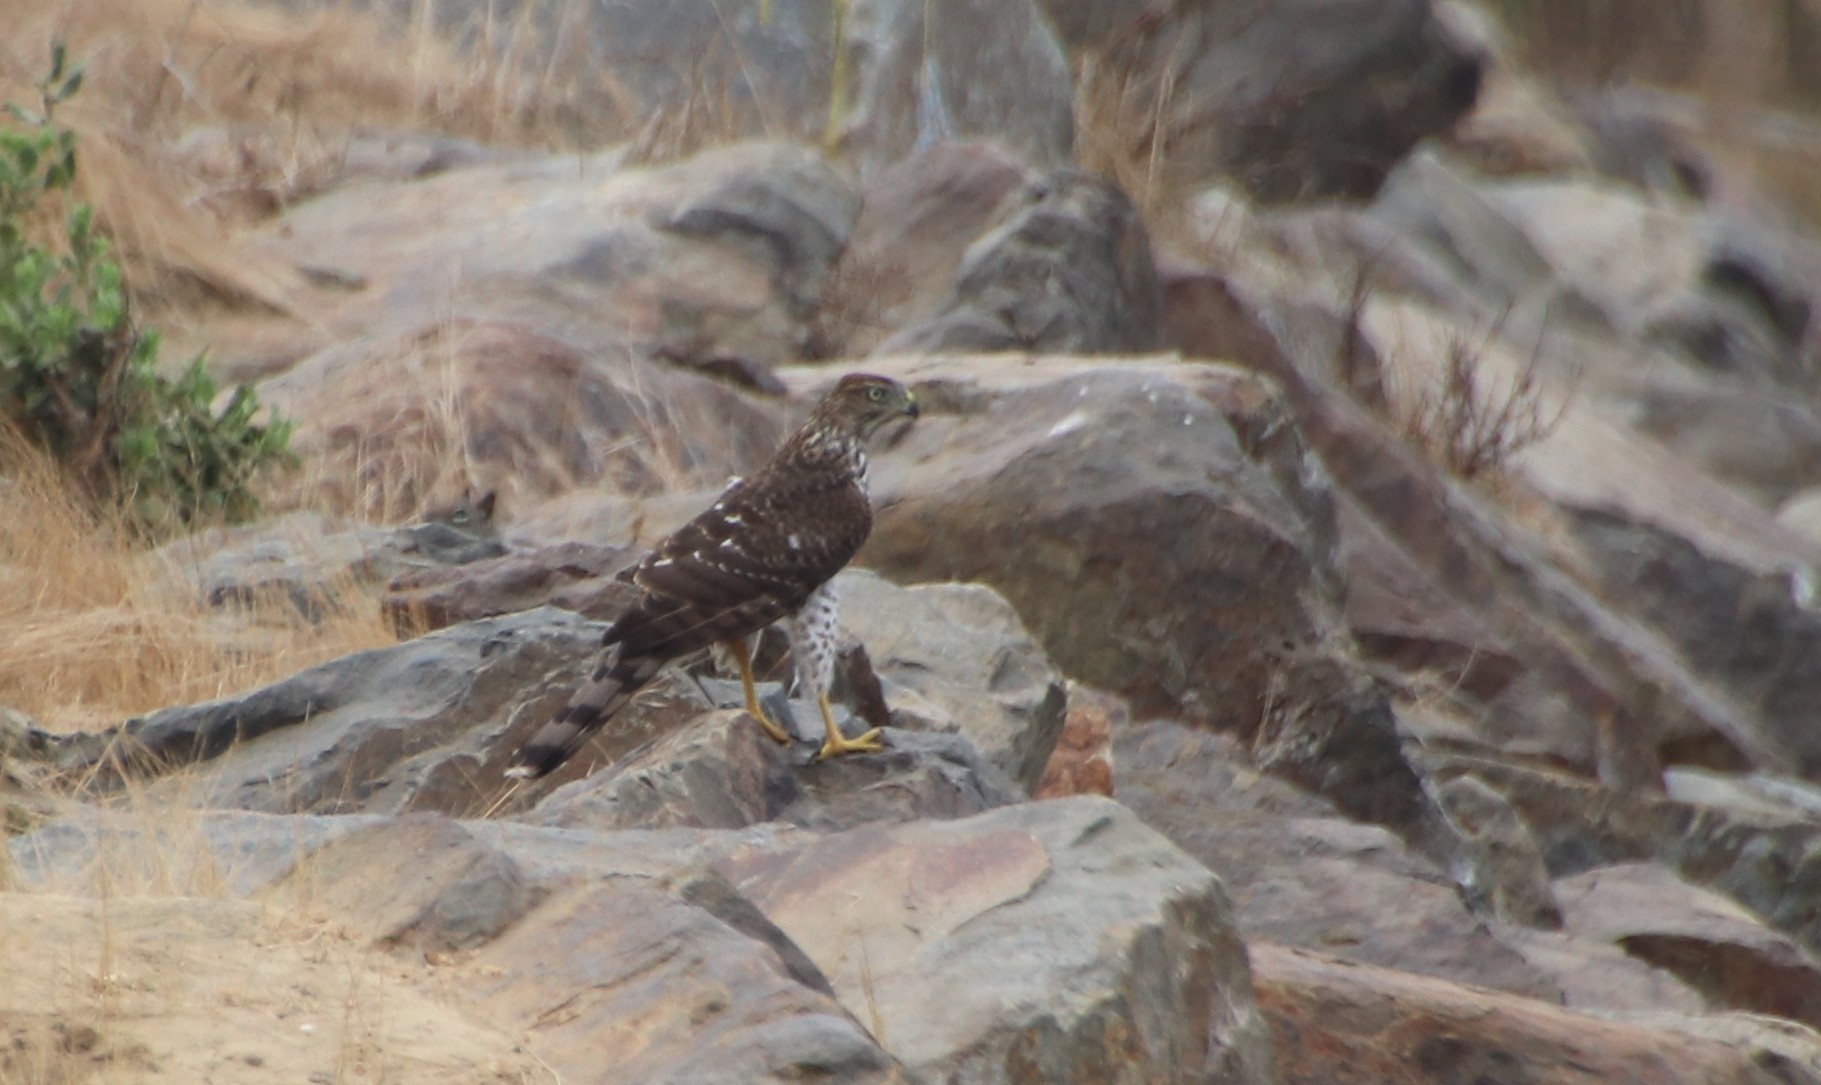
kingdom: Animalia
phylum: Chordata
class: Aves
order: Accipitriformes
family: Accipitridae
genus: Accipiter
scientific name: Accipiter cooperii
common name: Cooper's hawk
